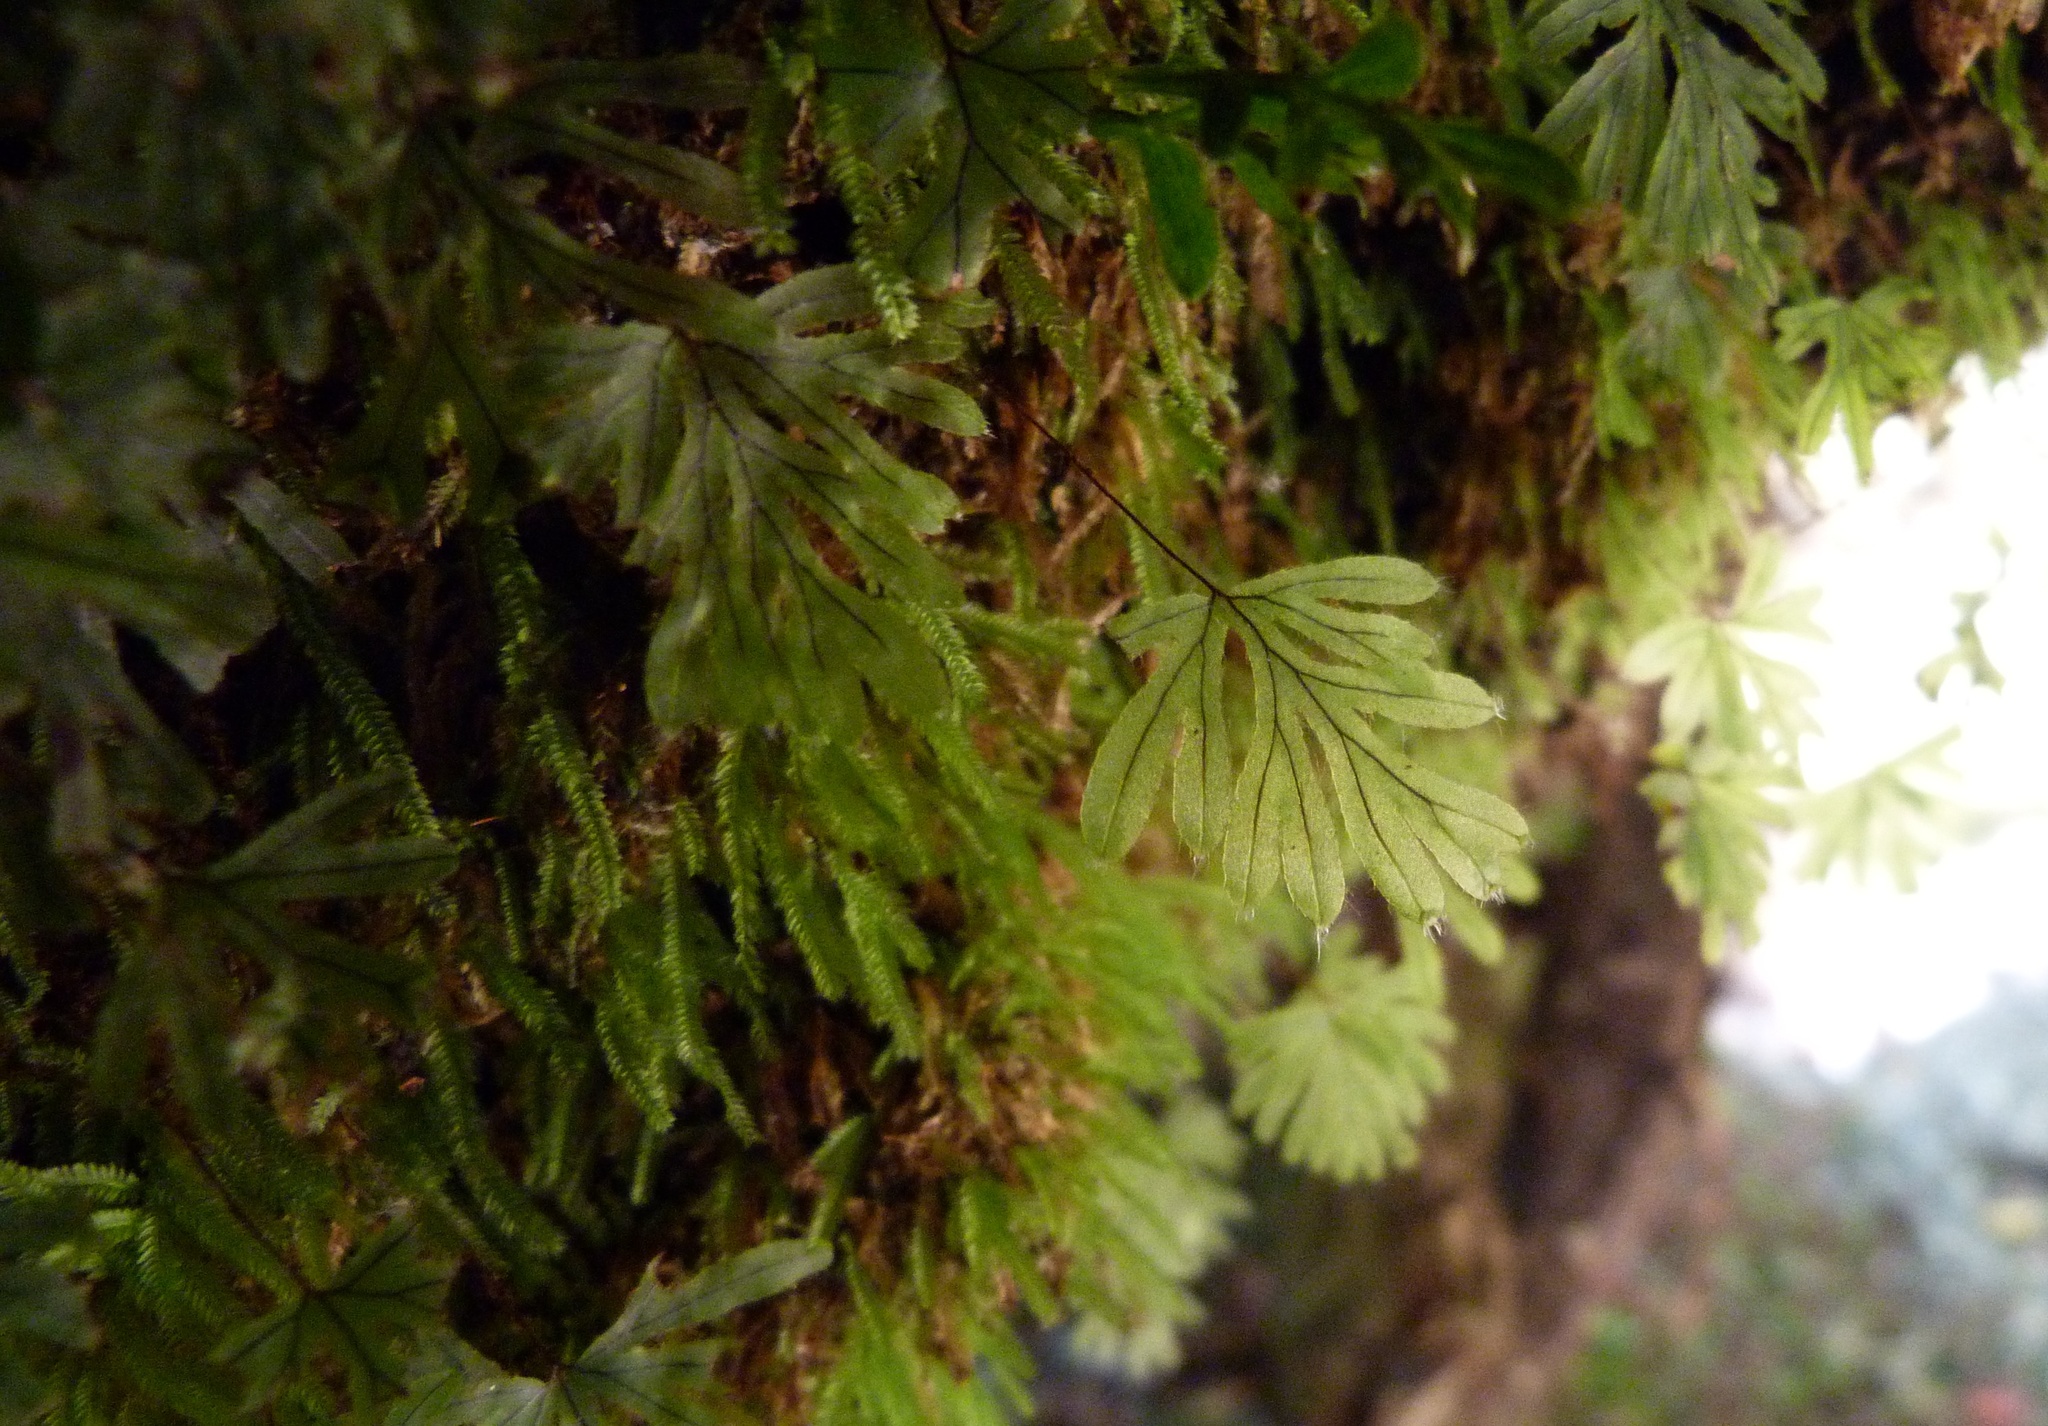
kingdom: Plantae
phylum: Tracheophyta
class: Polypodiopsida
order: Hymenophyllales
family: Hymenophyllaceae
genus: Hymenophyllum
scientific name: Hymenophyllum lyallii
